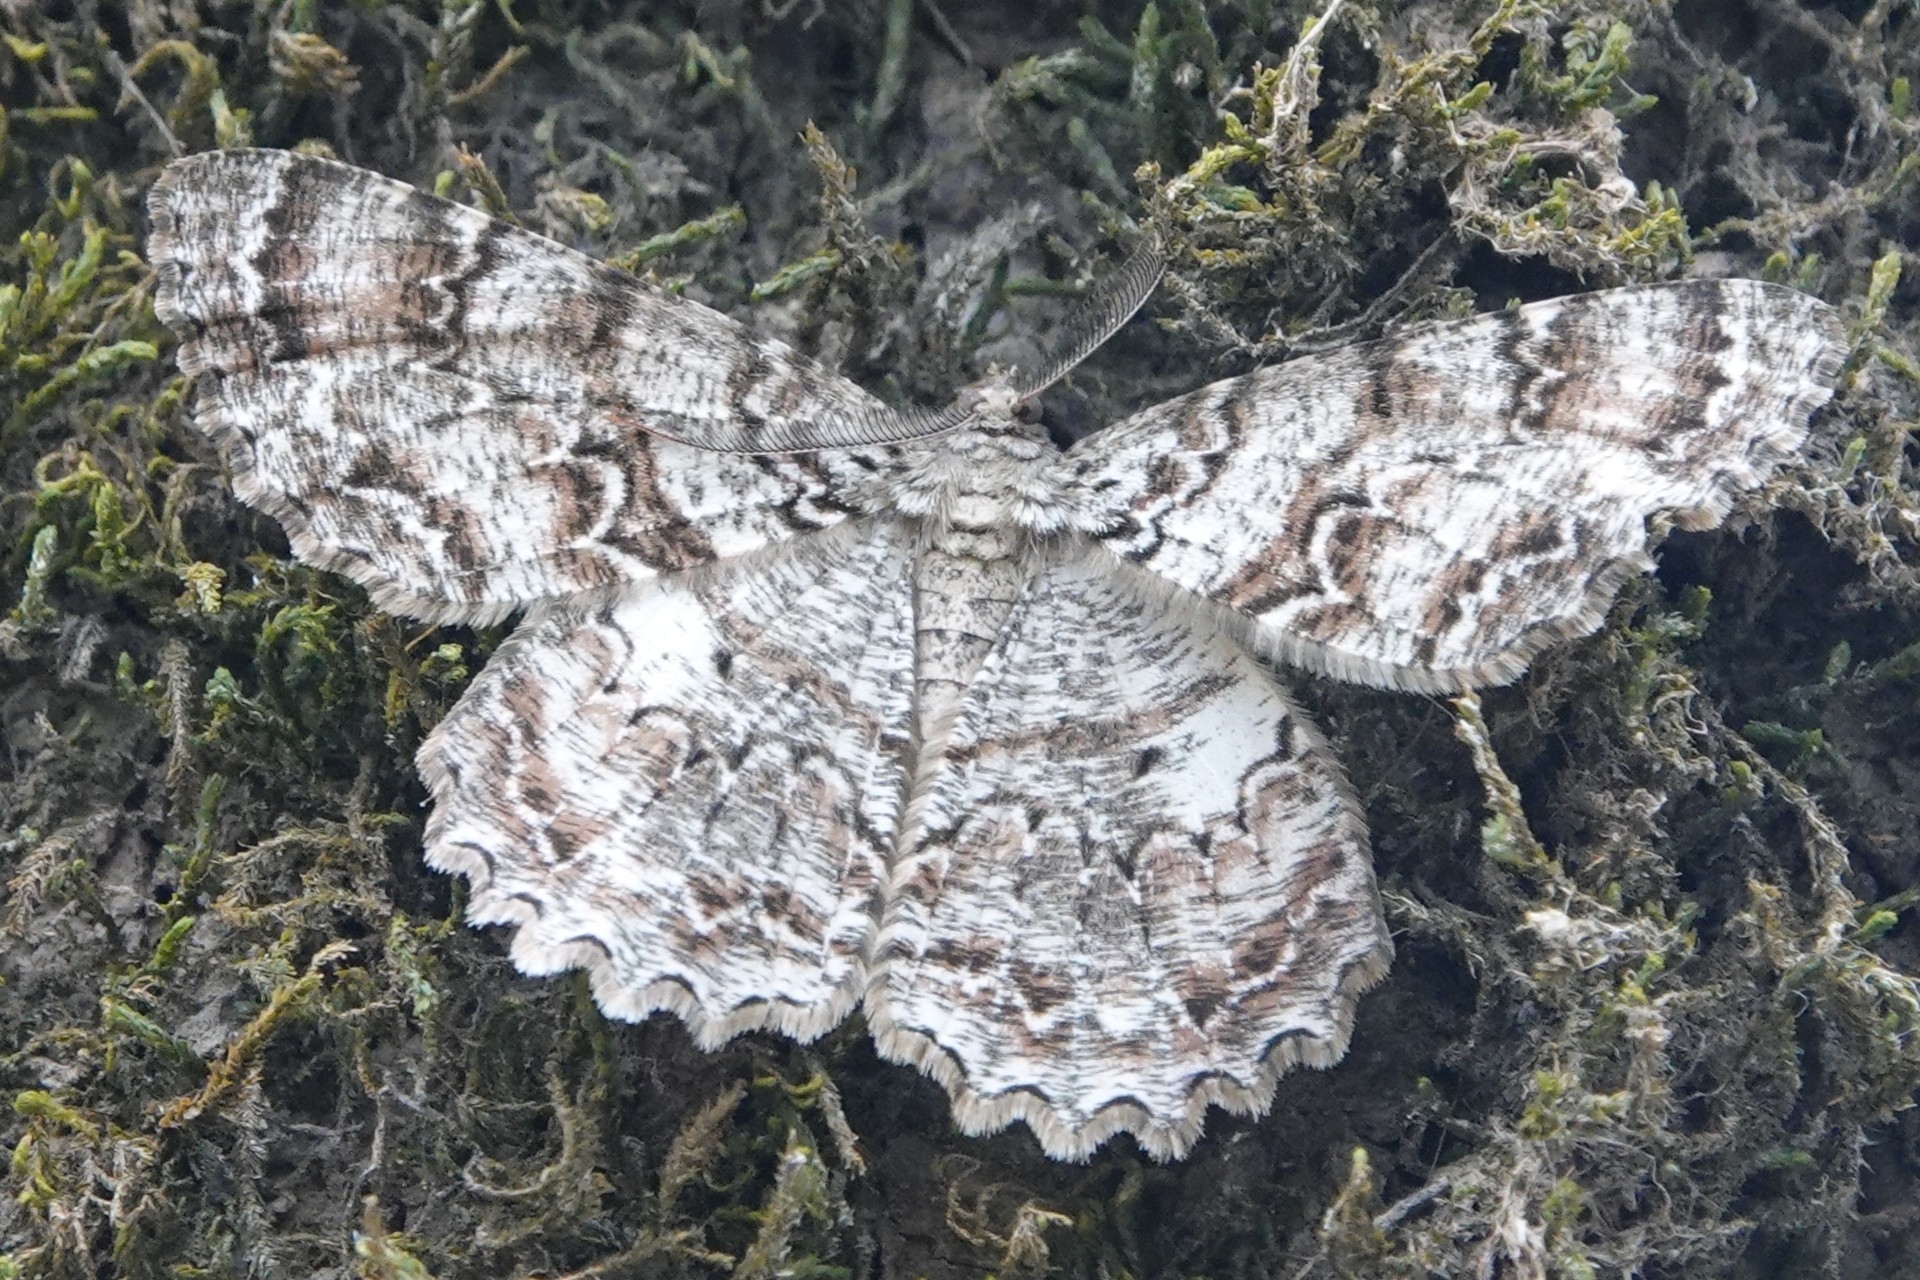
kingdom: Animalia
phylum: Arthropoda
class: Insecta
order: Lepidoptera
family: Geometridae
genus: Epimecis
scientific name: Epimecis hortaria
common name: Tulip-tree beauty
